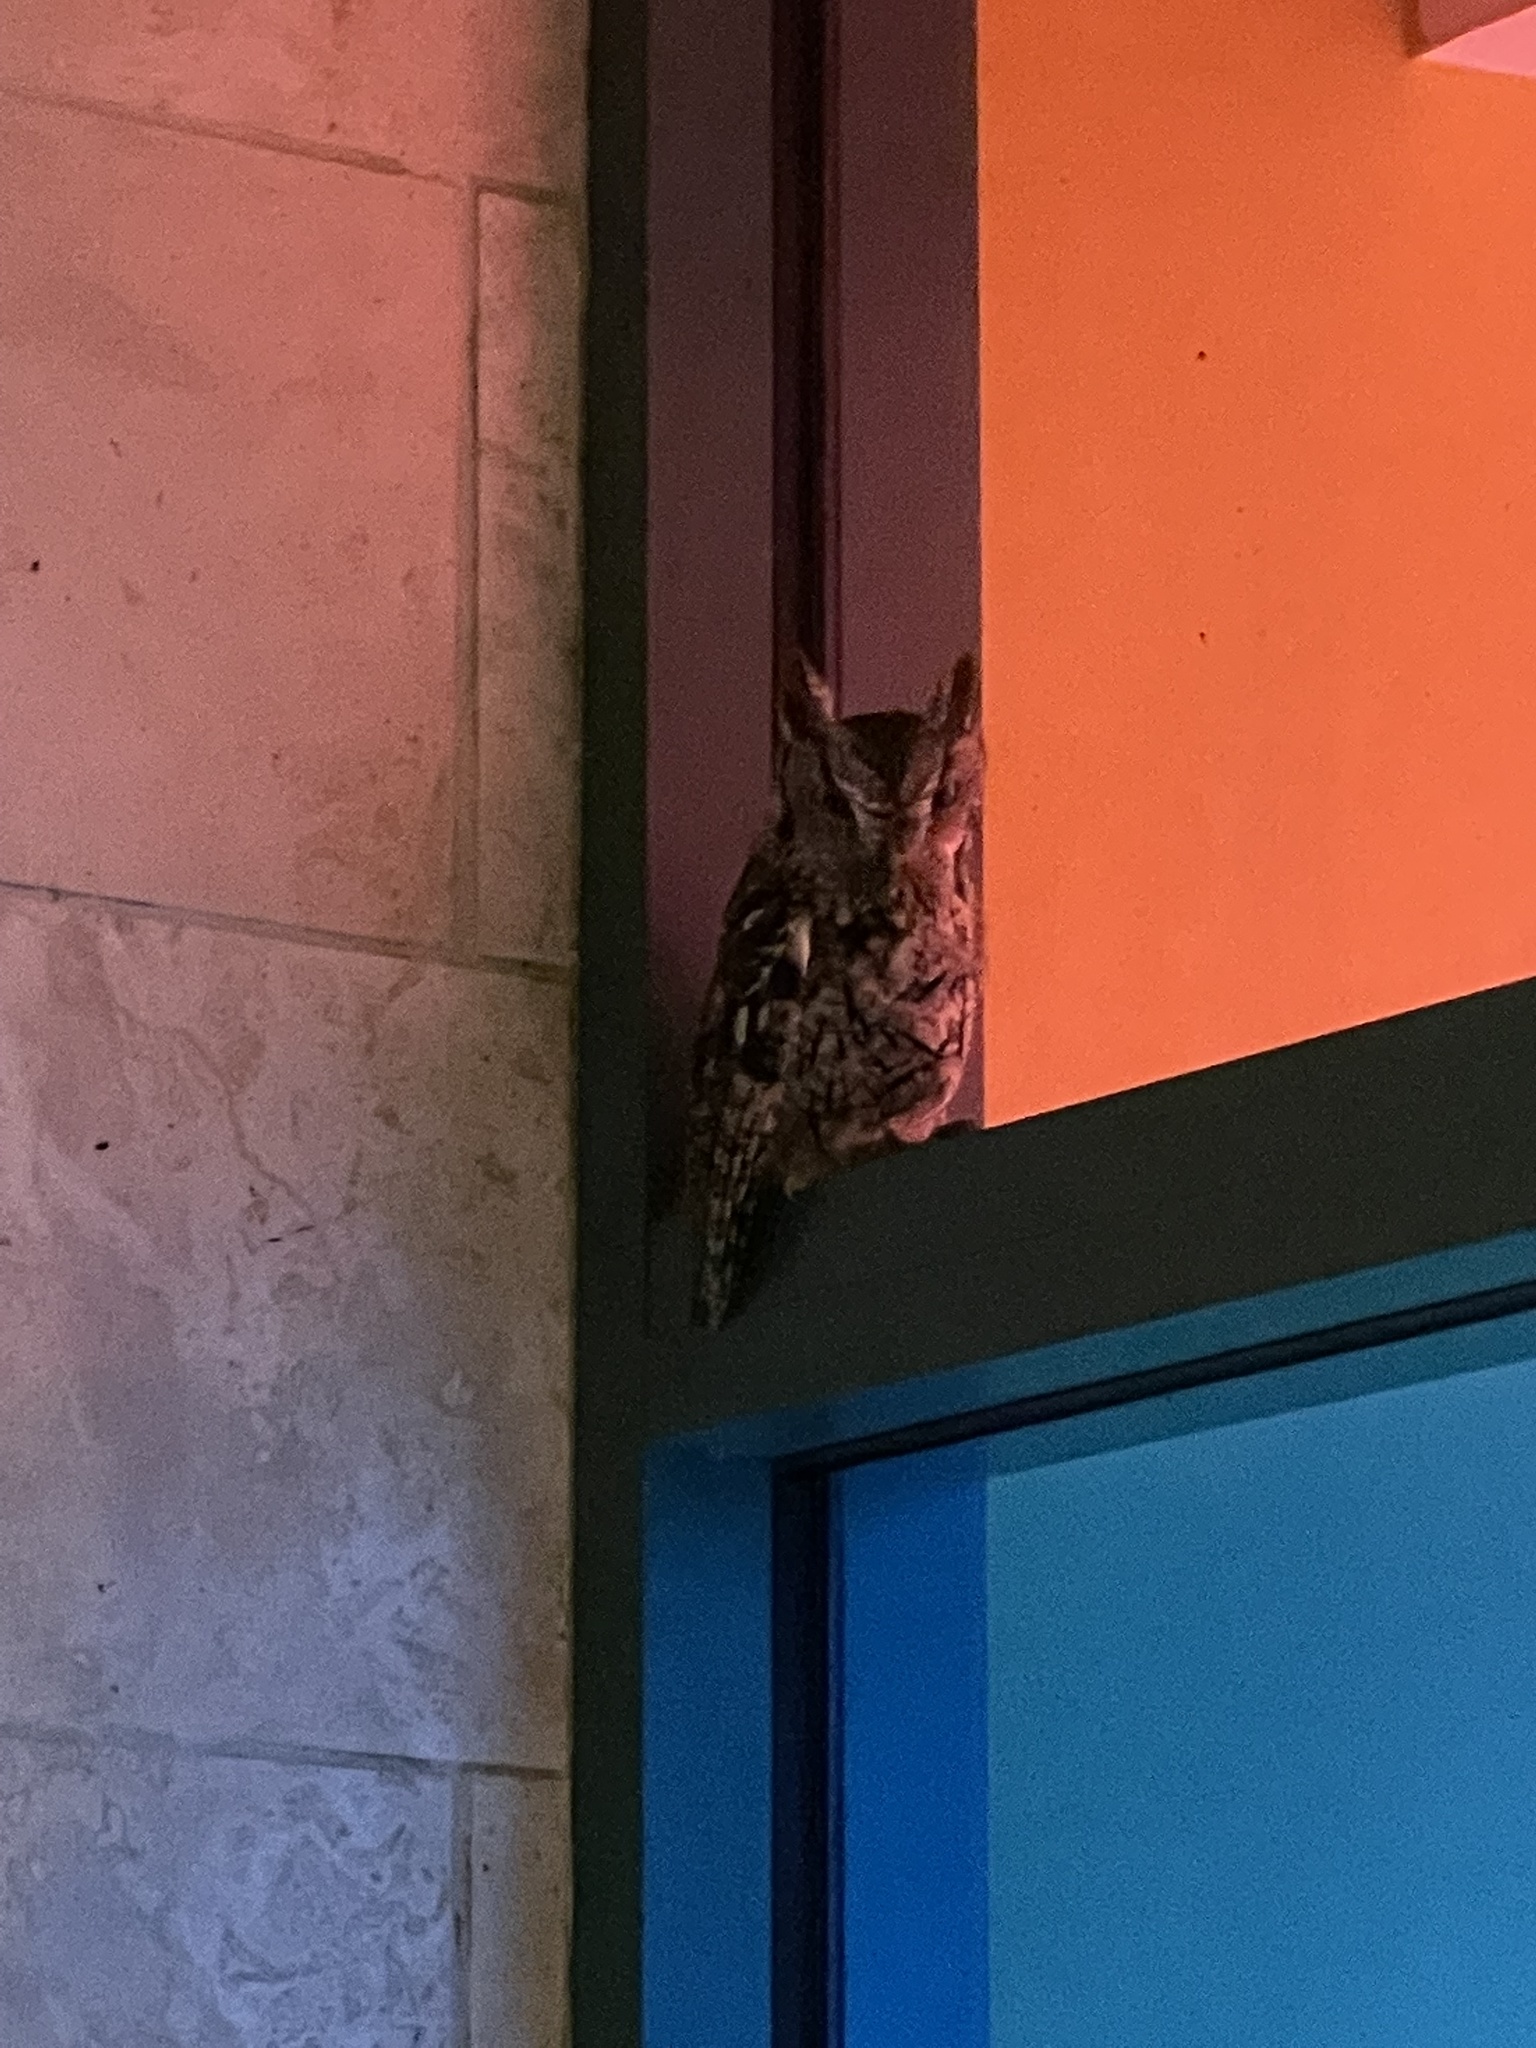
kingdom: Animalia
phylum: Chordata
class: Aves
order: Strigiformes
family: Strigidae
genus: Megascops
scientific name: Megascops asio
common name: Eastern screech-owl
